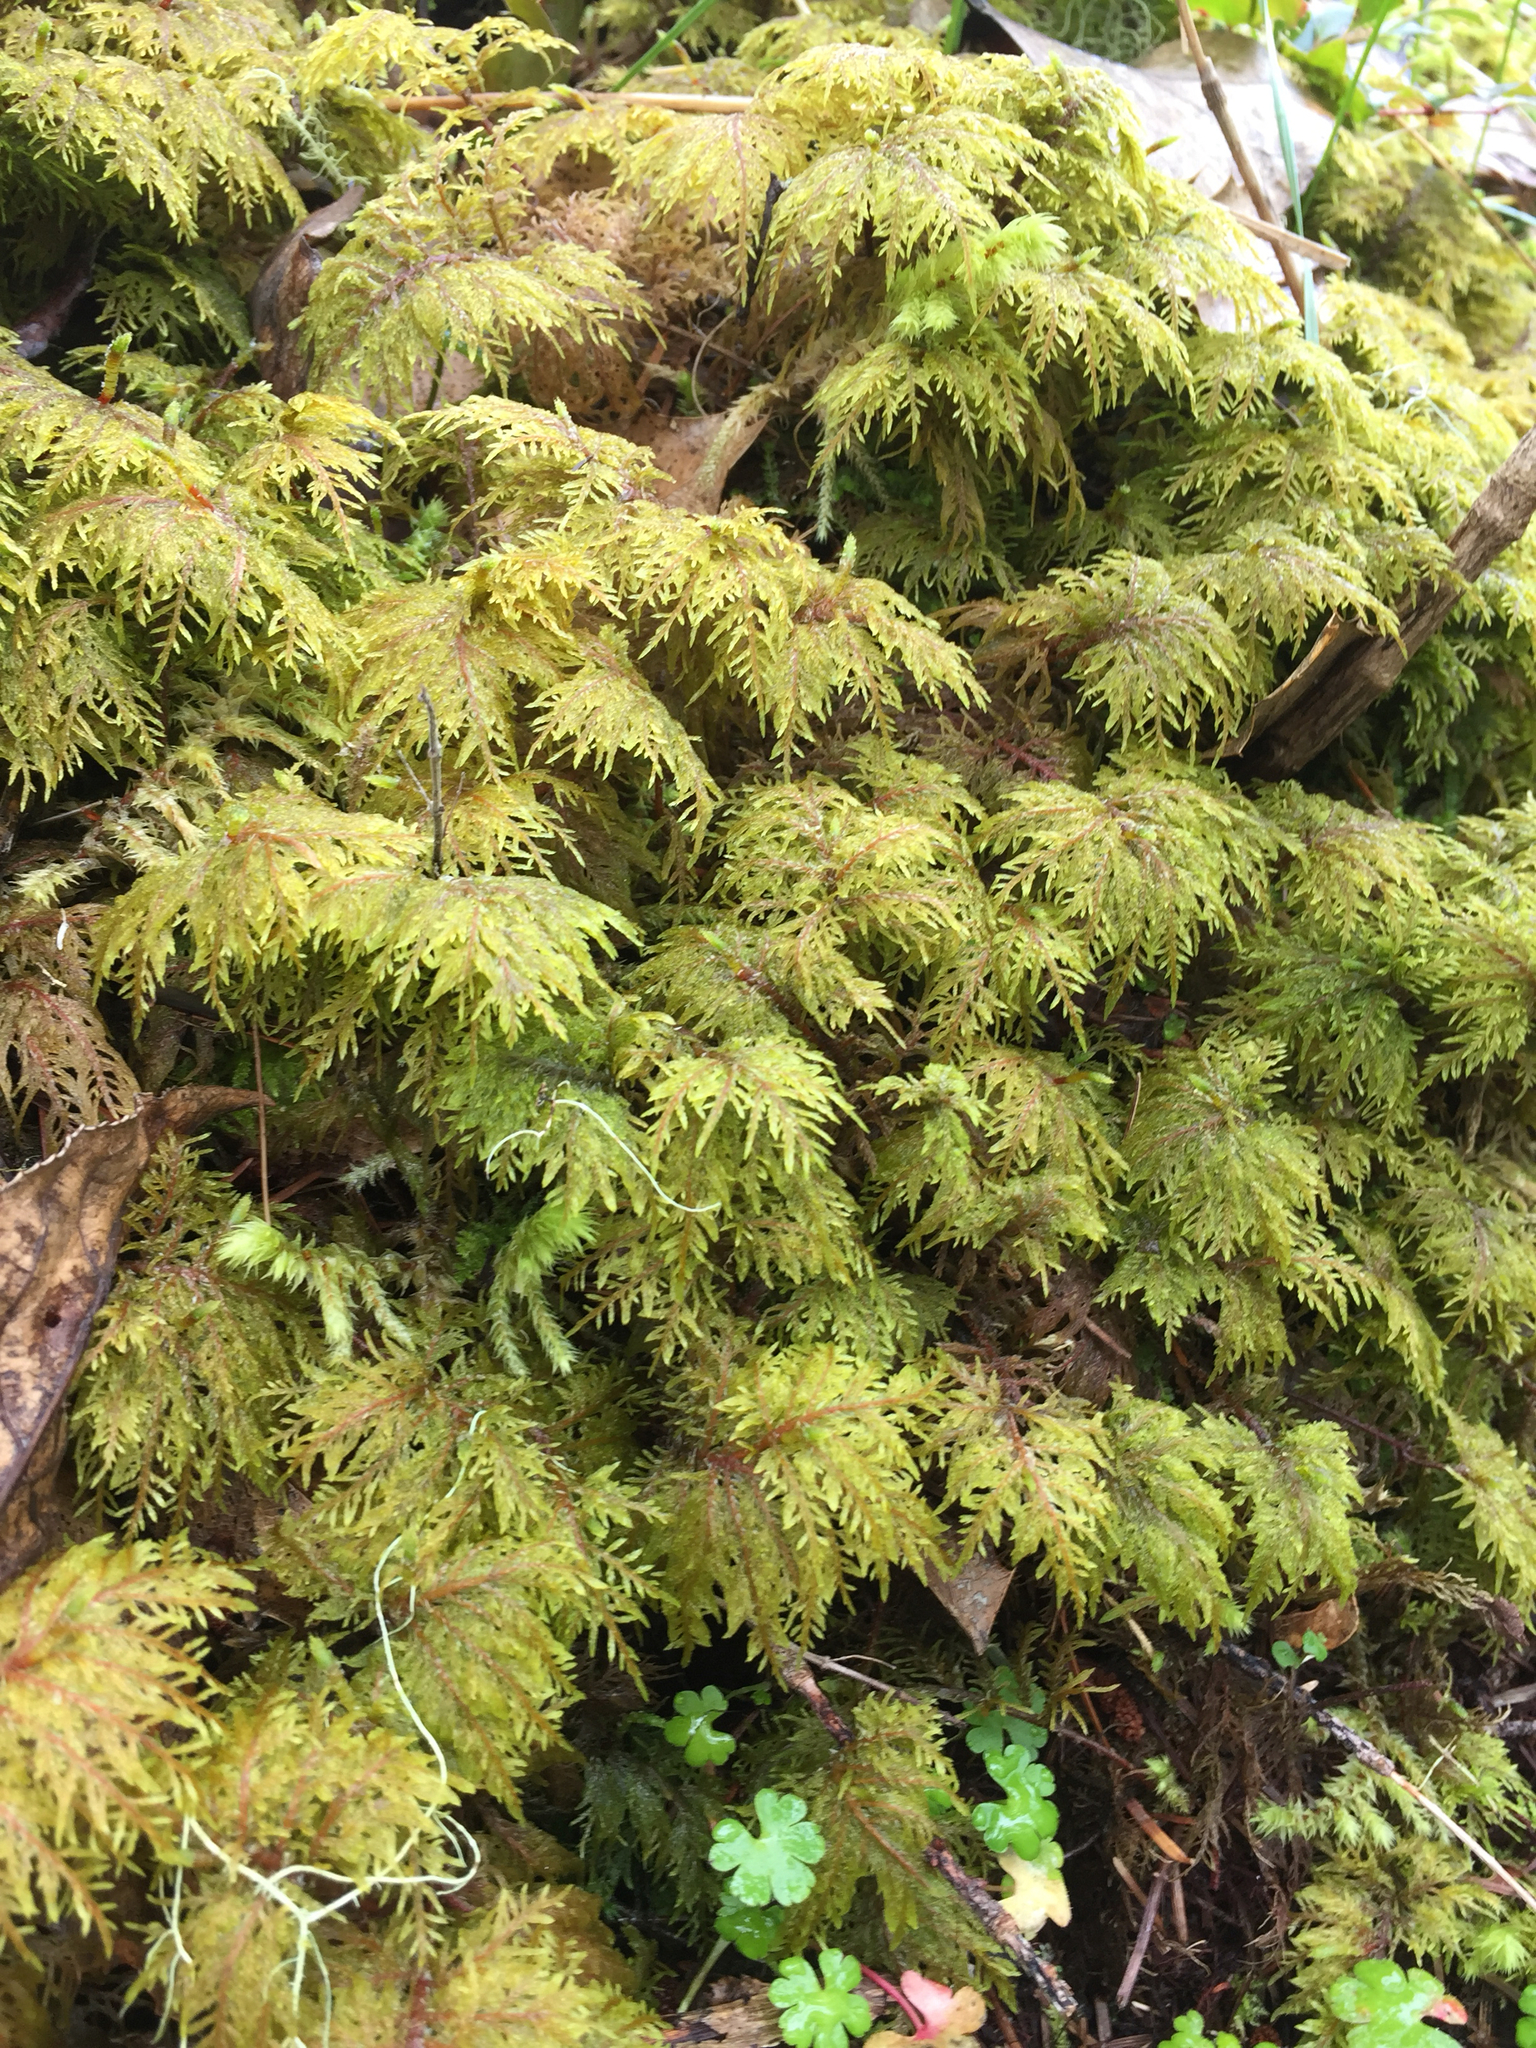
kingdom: Plantae
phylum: Bryophyta
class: Bryopsida
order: Hypnales
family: Hylocomiaceae
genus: Hylocomium
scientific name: Hylocomium splendens
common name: Stairstep moss
